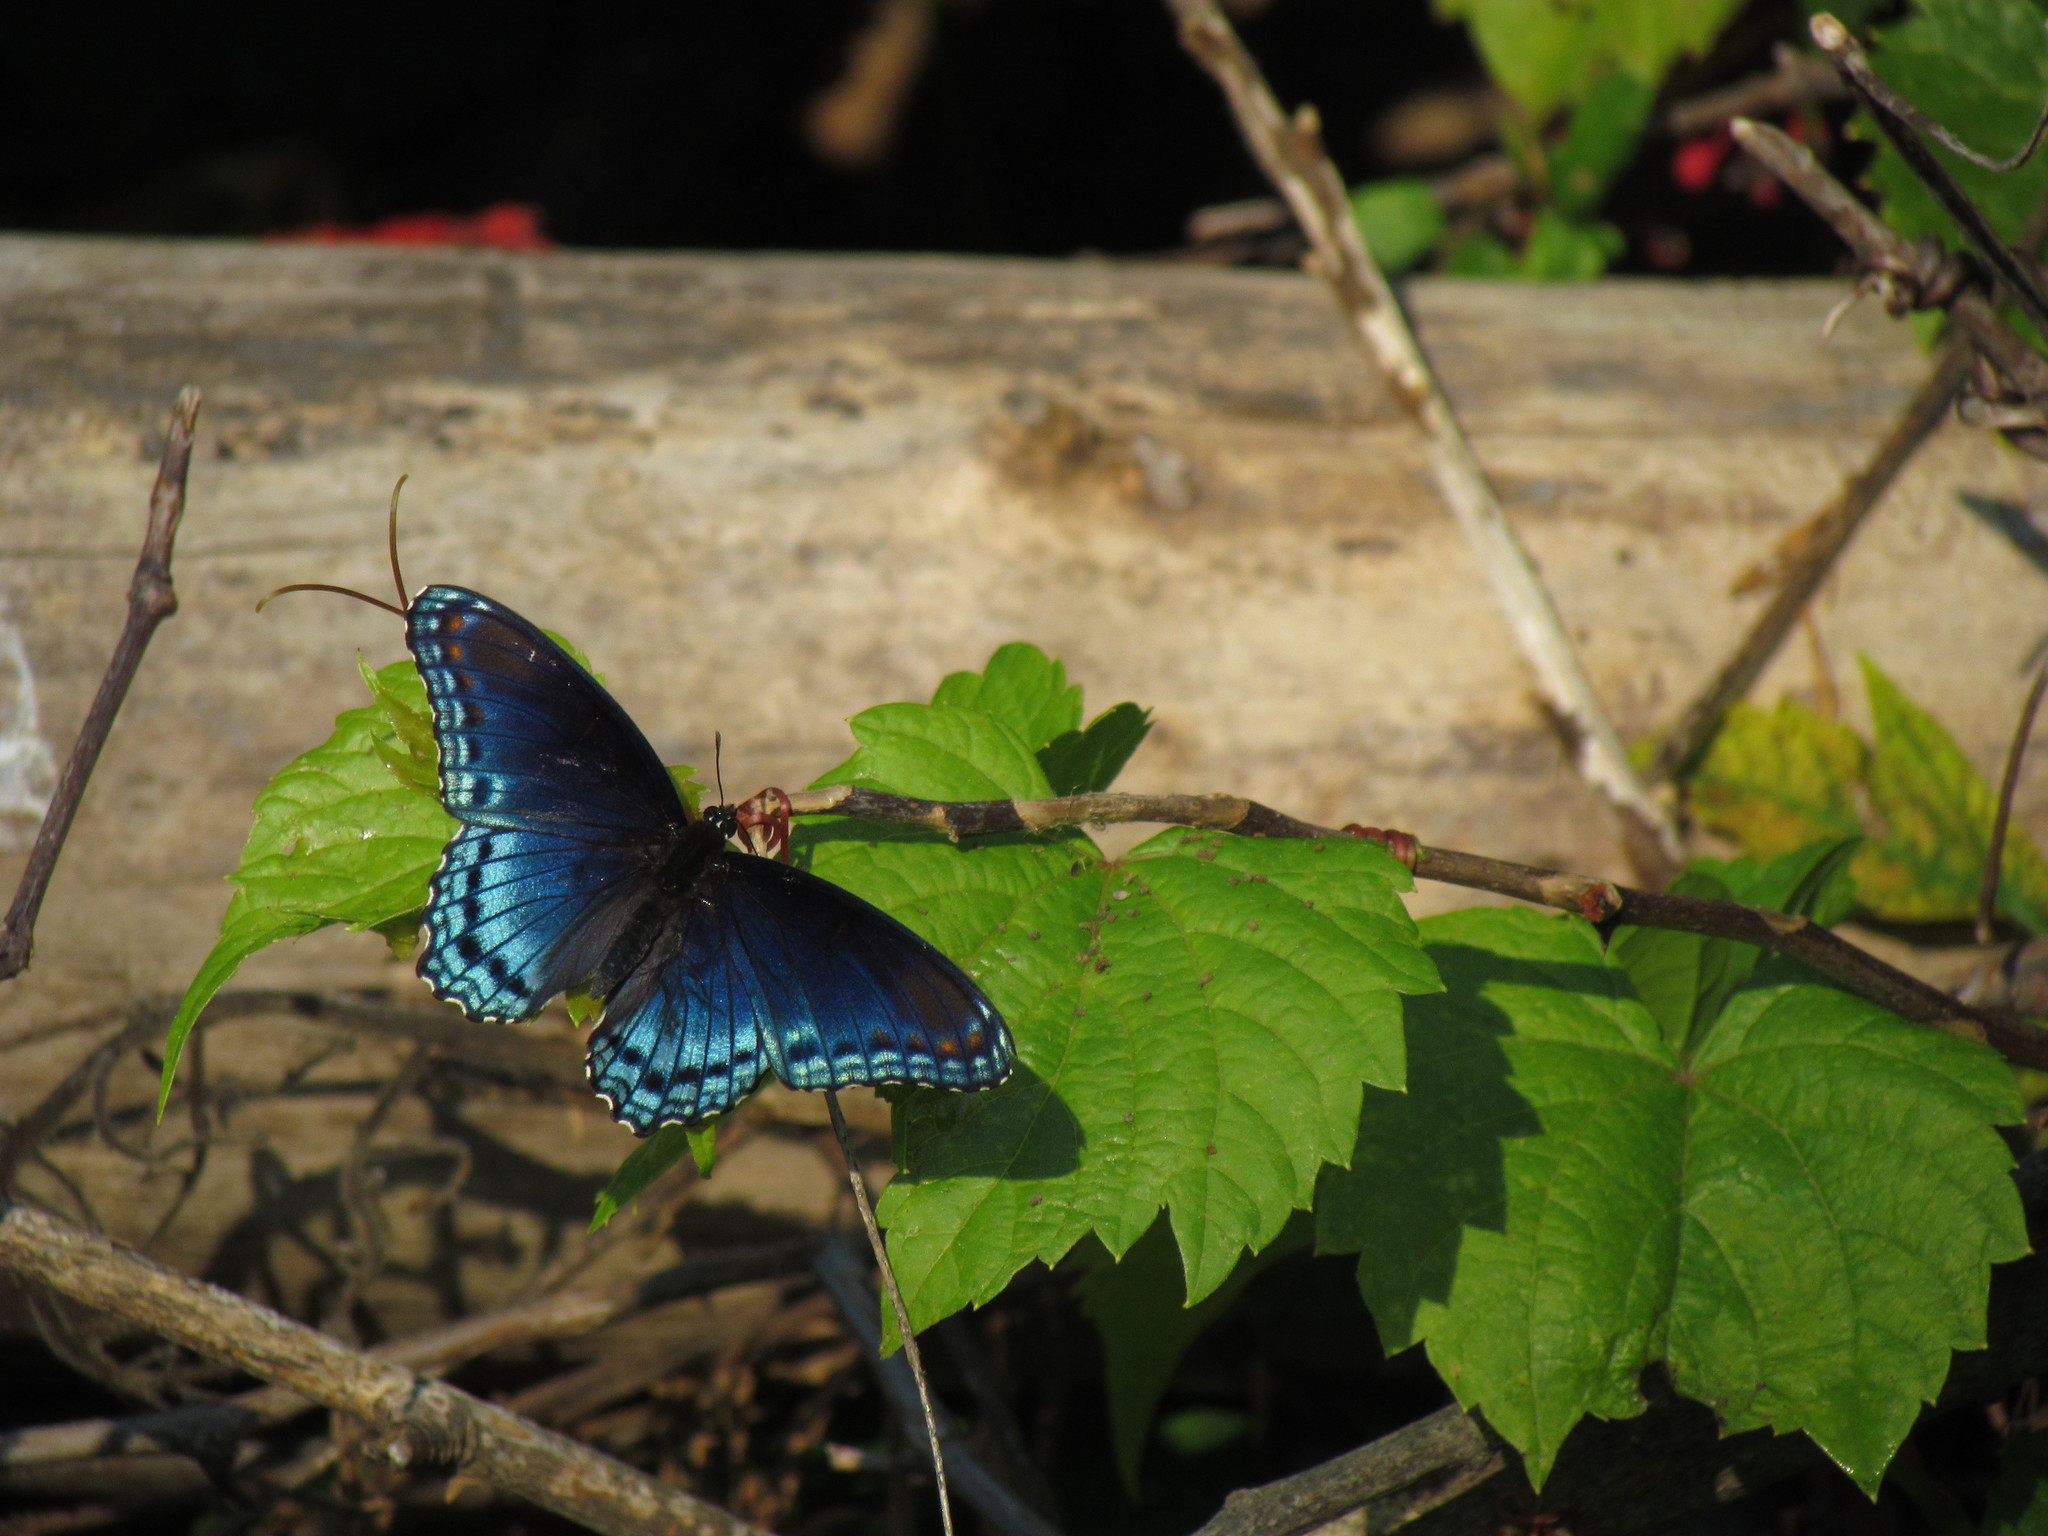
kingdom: Animalia
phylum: Arthropoda
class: Insecta
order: Lepidoptera
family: Nymphalidae
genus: Limenitis
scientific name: Limenitis astyanax
